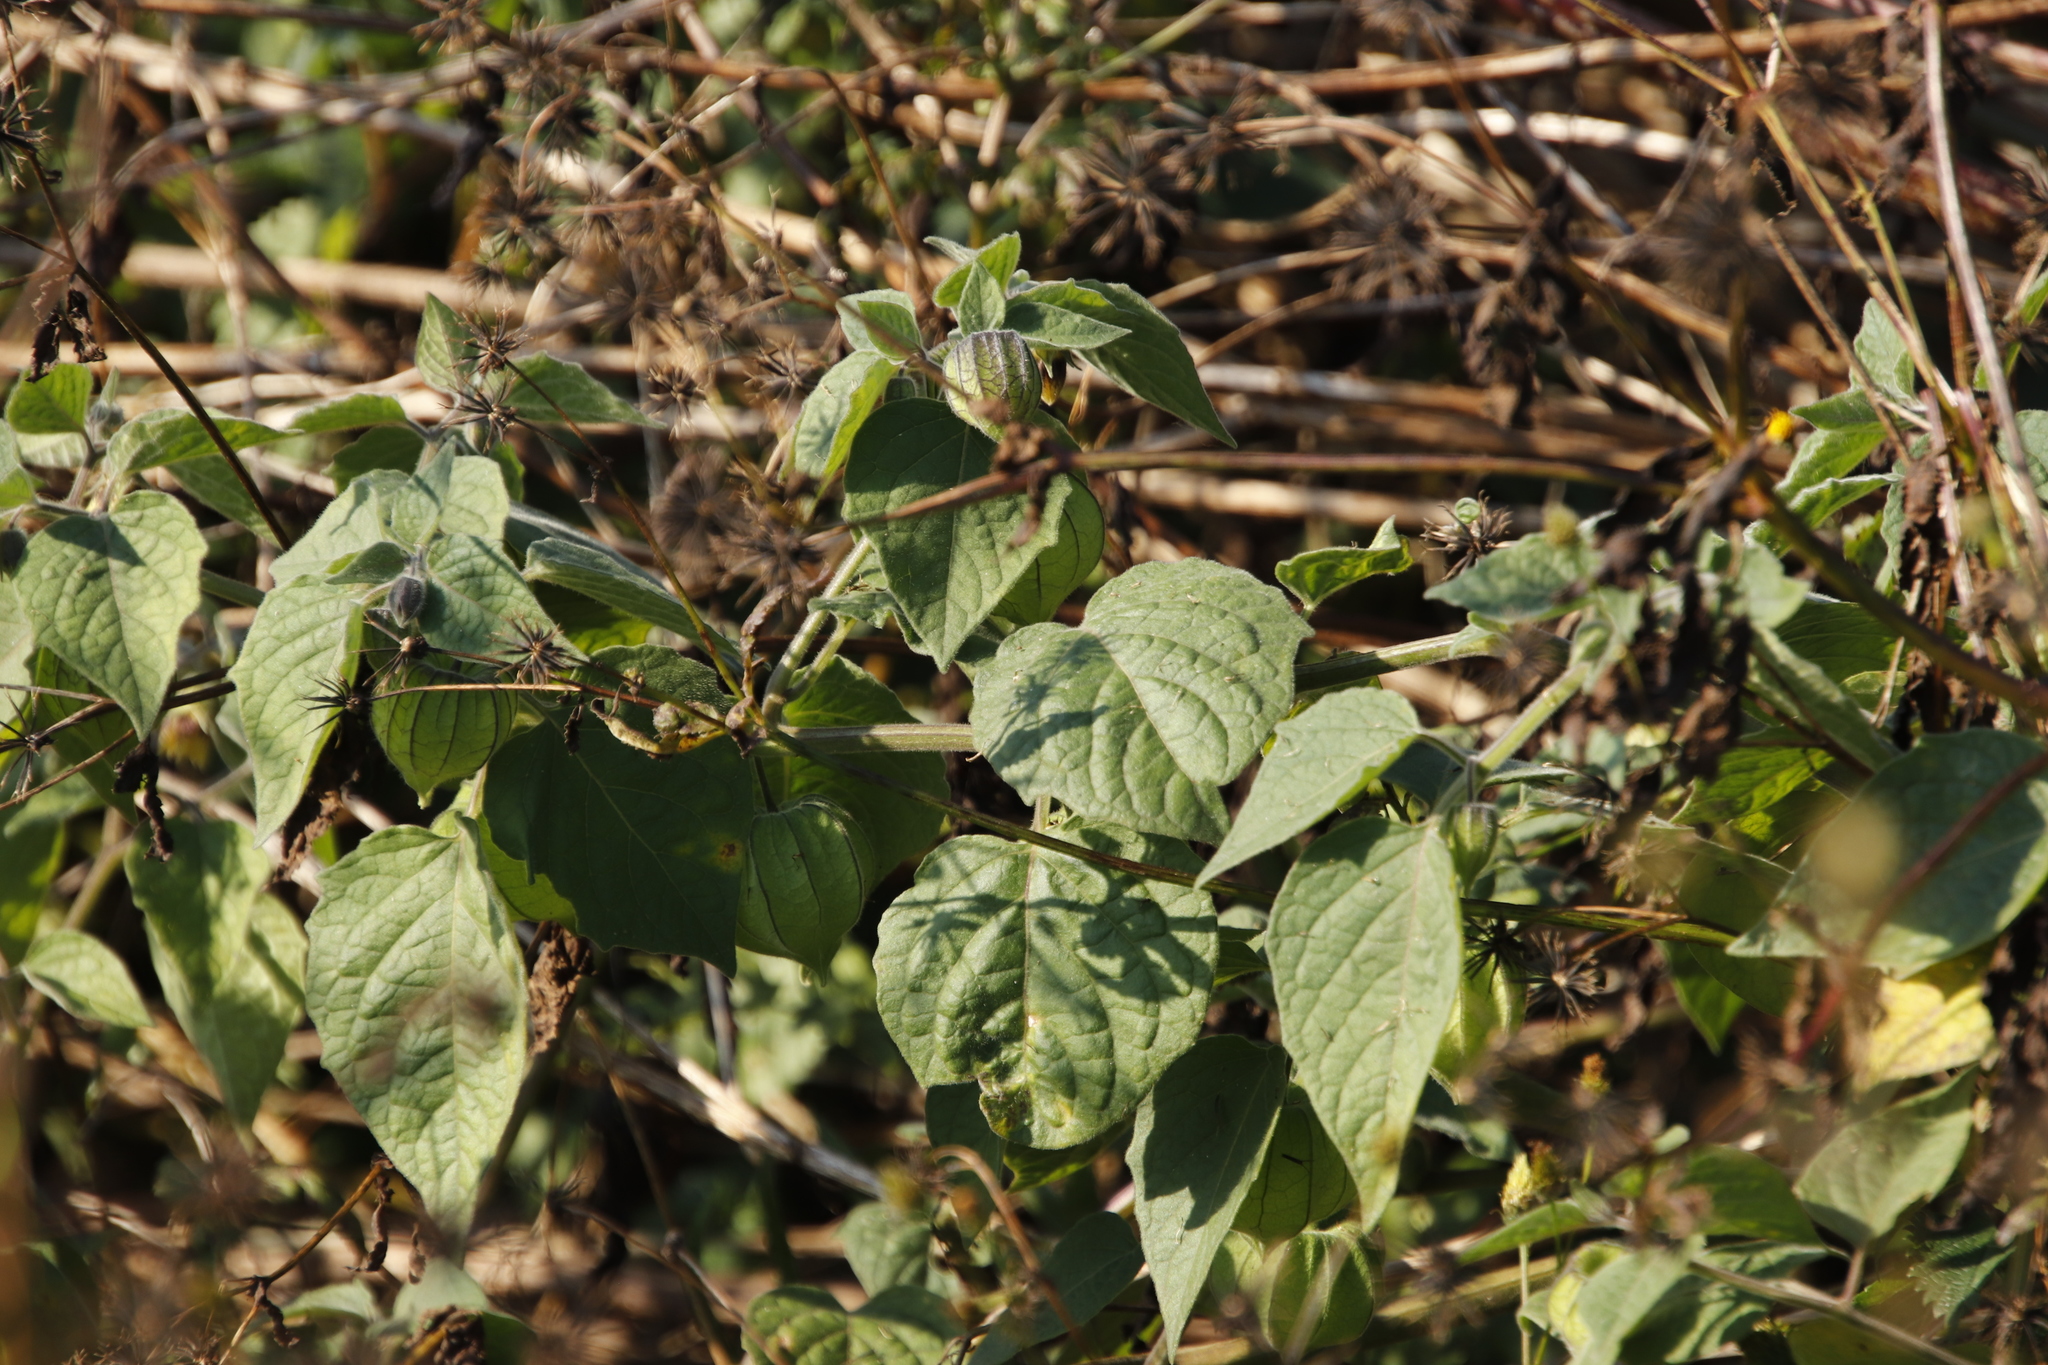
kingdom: Plantae
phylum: Tracheophyta
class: Magnoliopsida
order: Solanales
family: Solanaceae
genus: Physalis
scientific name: Physalis peruviana
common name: Cape-gooseberry
